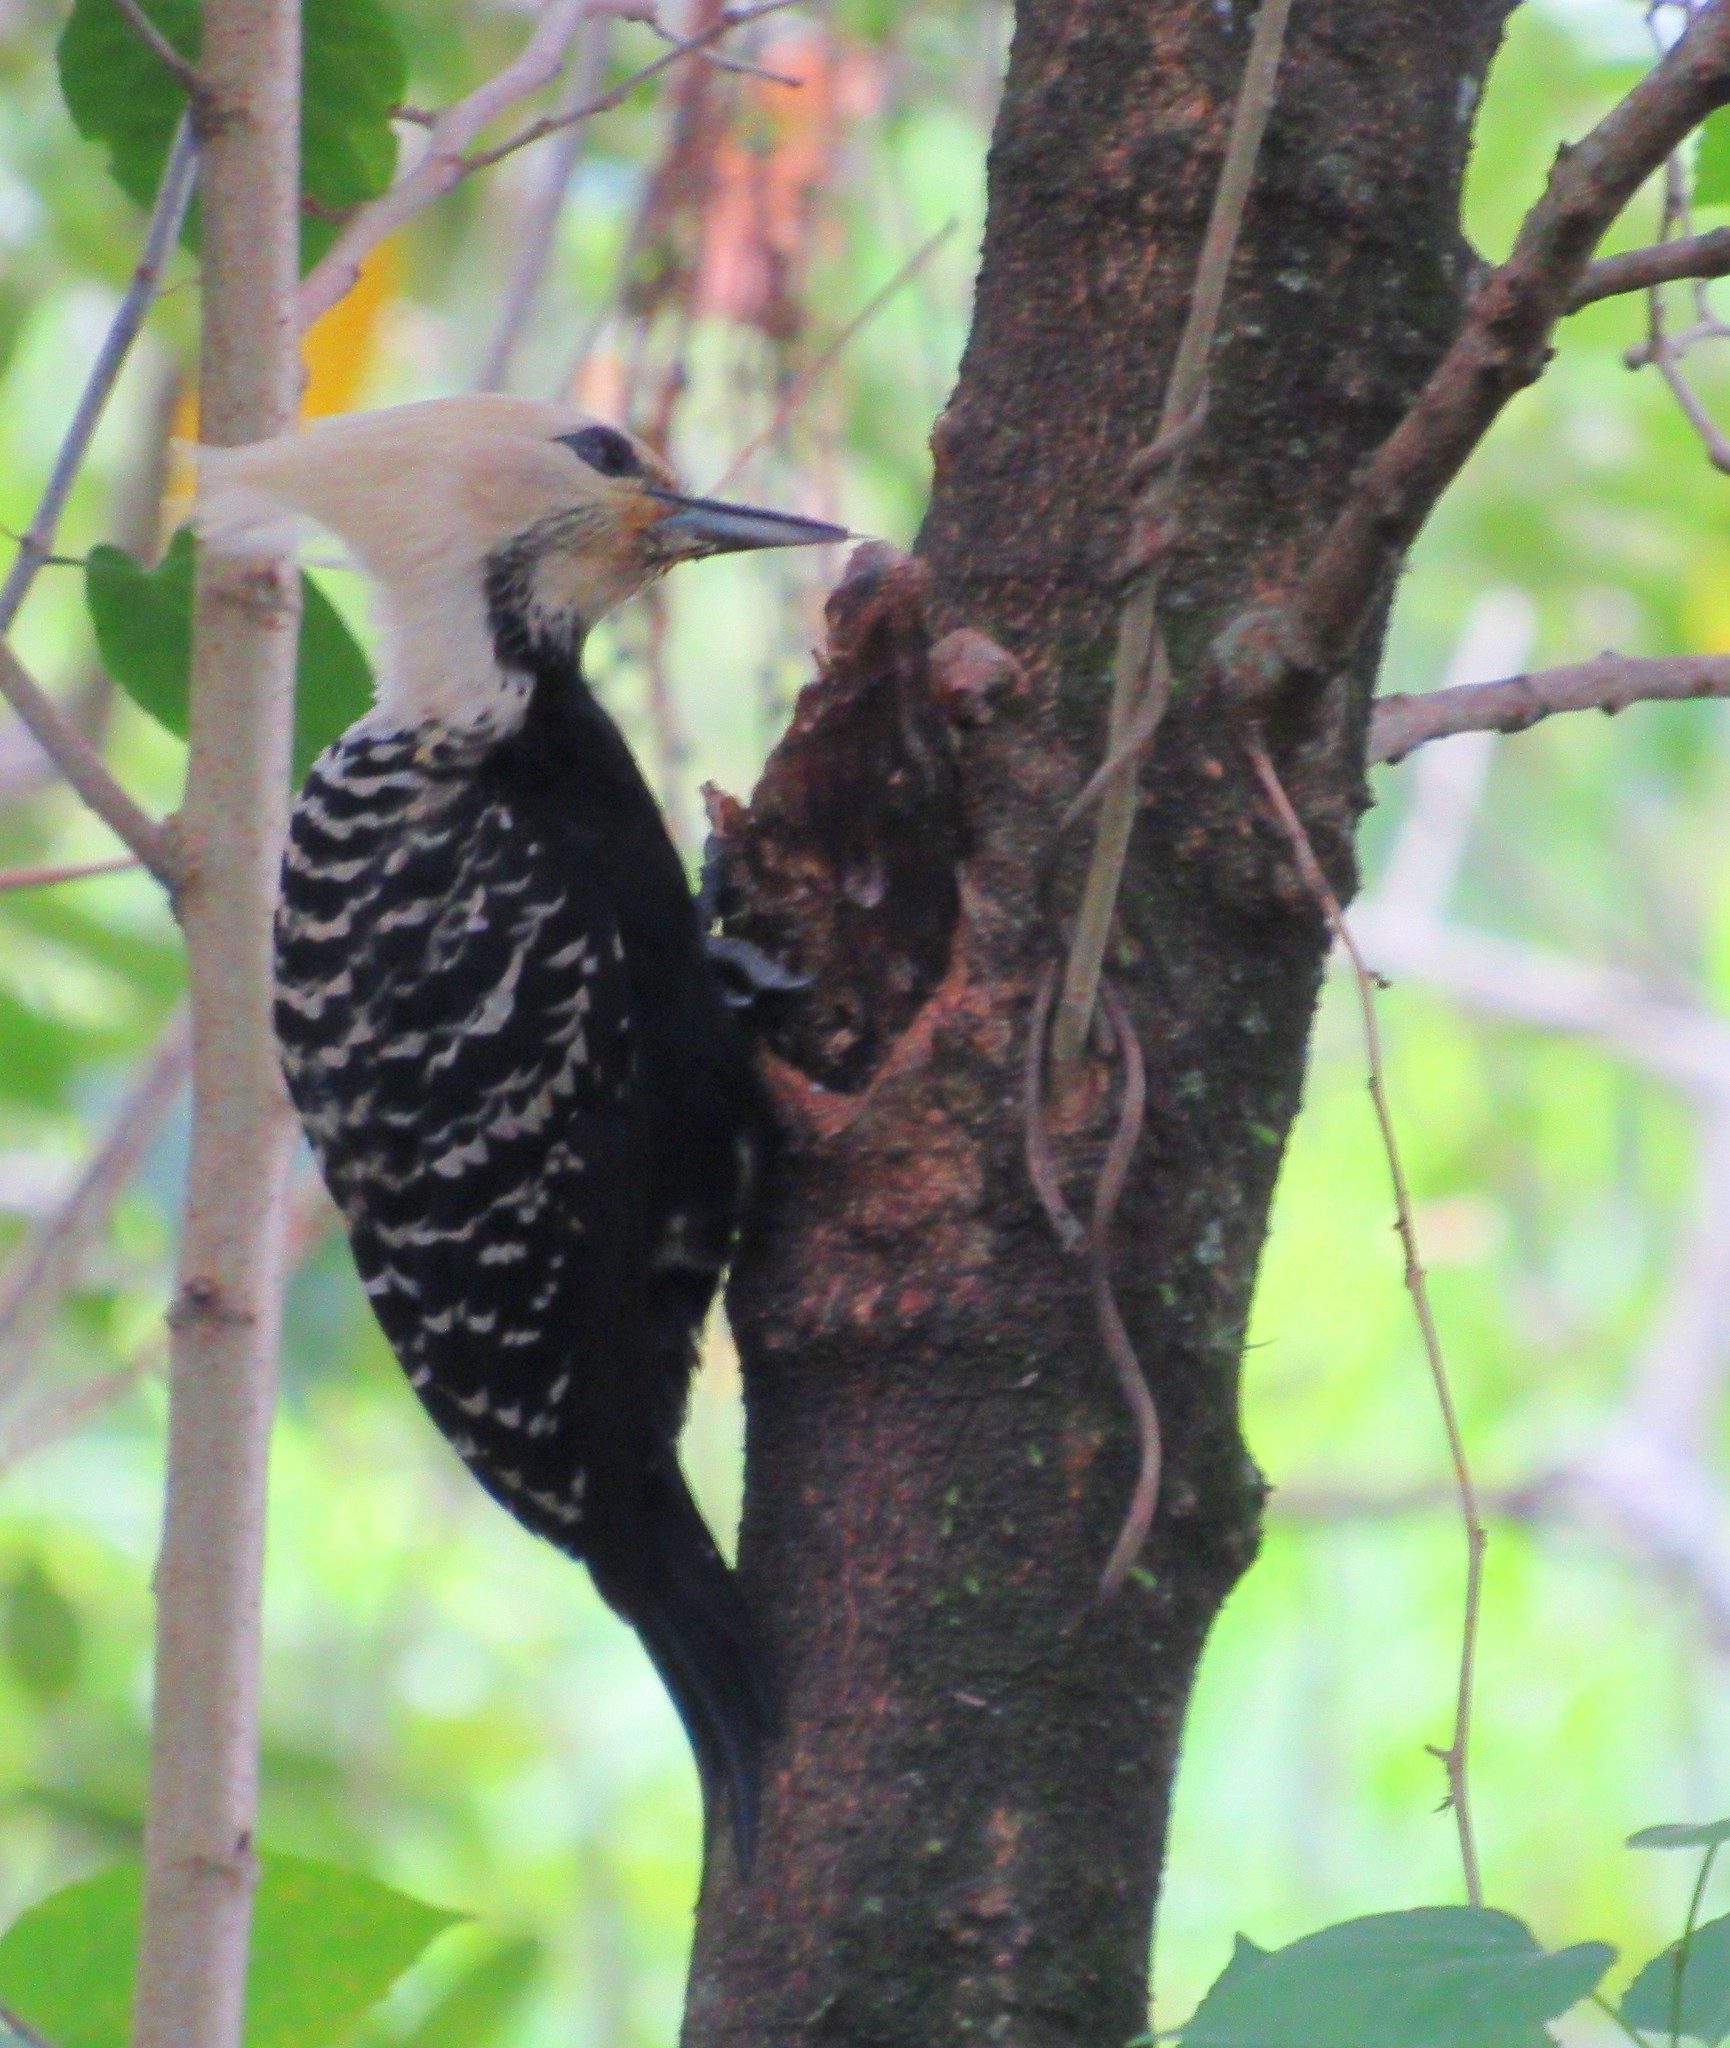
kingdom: Animalia
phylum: Chordata
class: Aves
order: Piciformes
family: Picidae
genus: Celeus
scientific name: Celeus flavescens
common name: Blond-crested woodpecker
